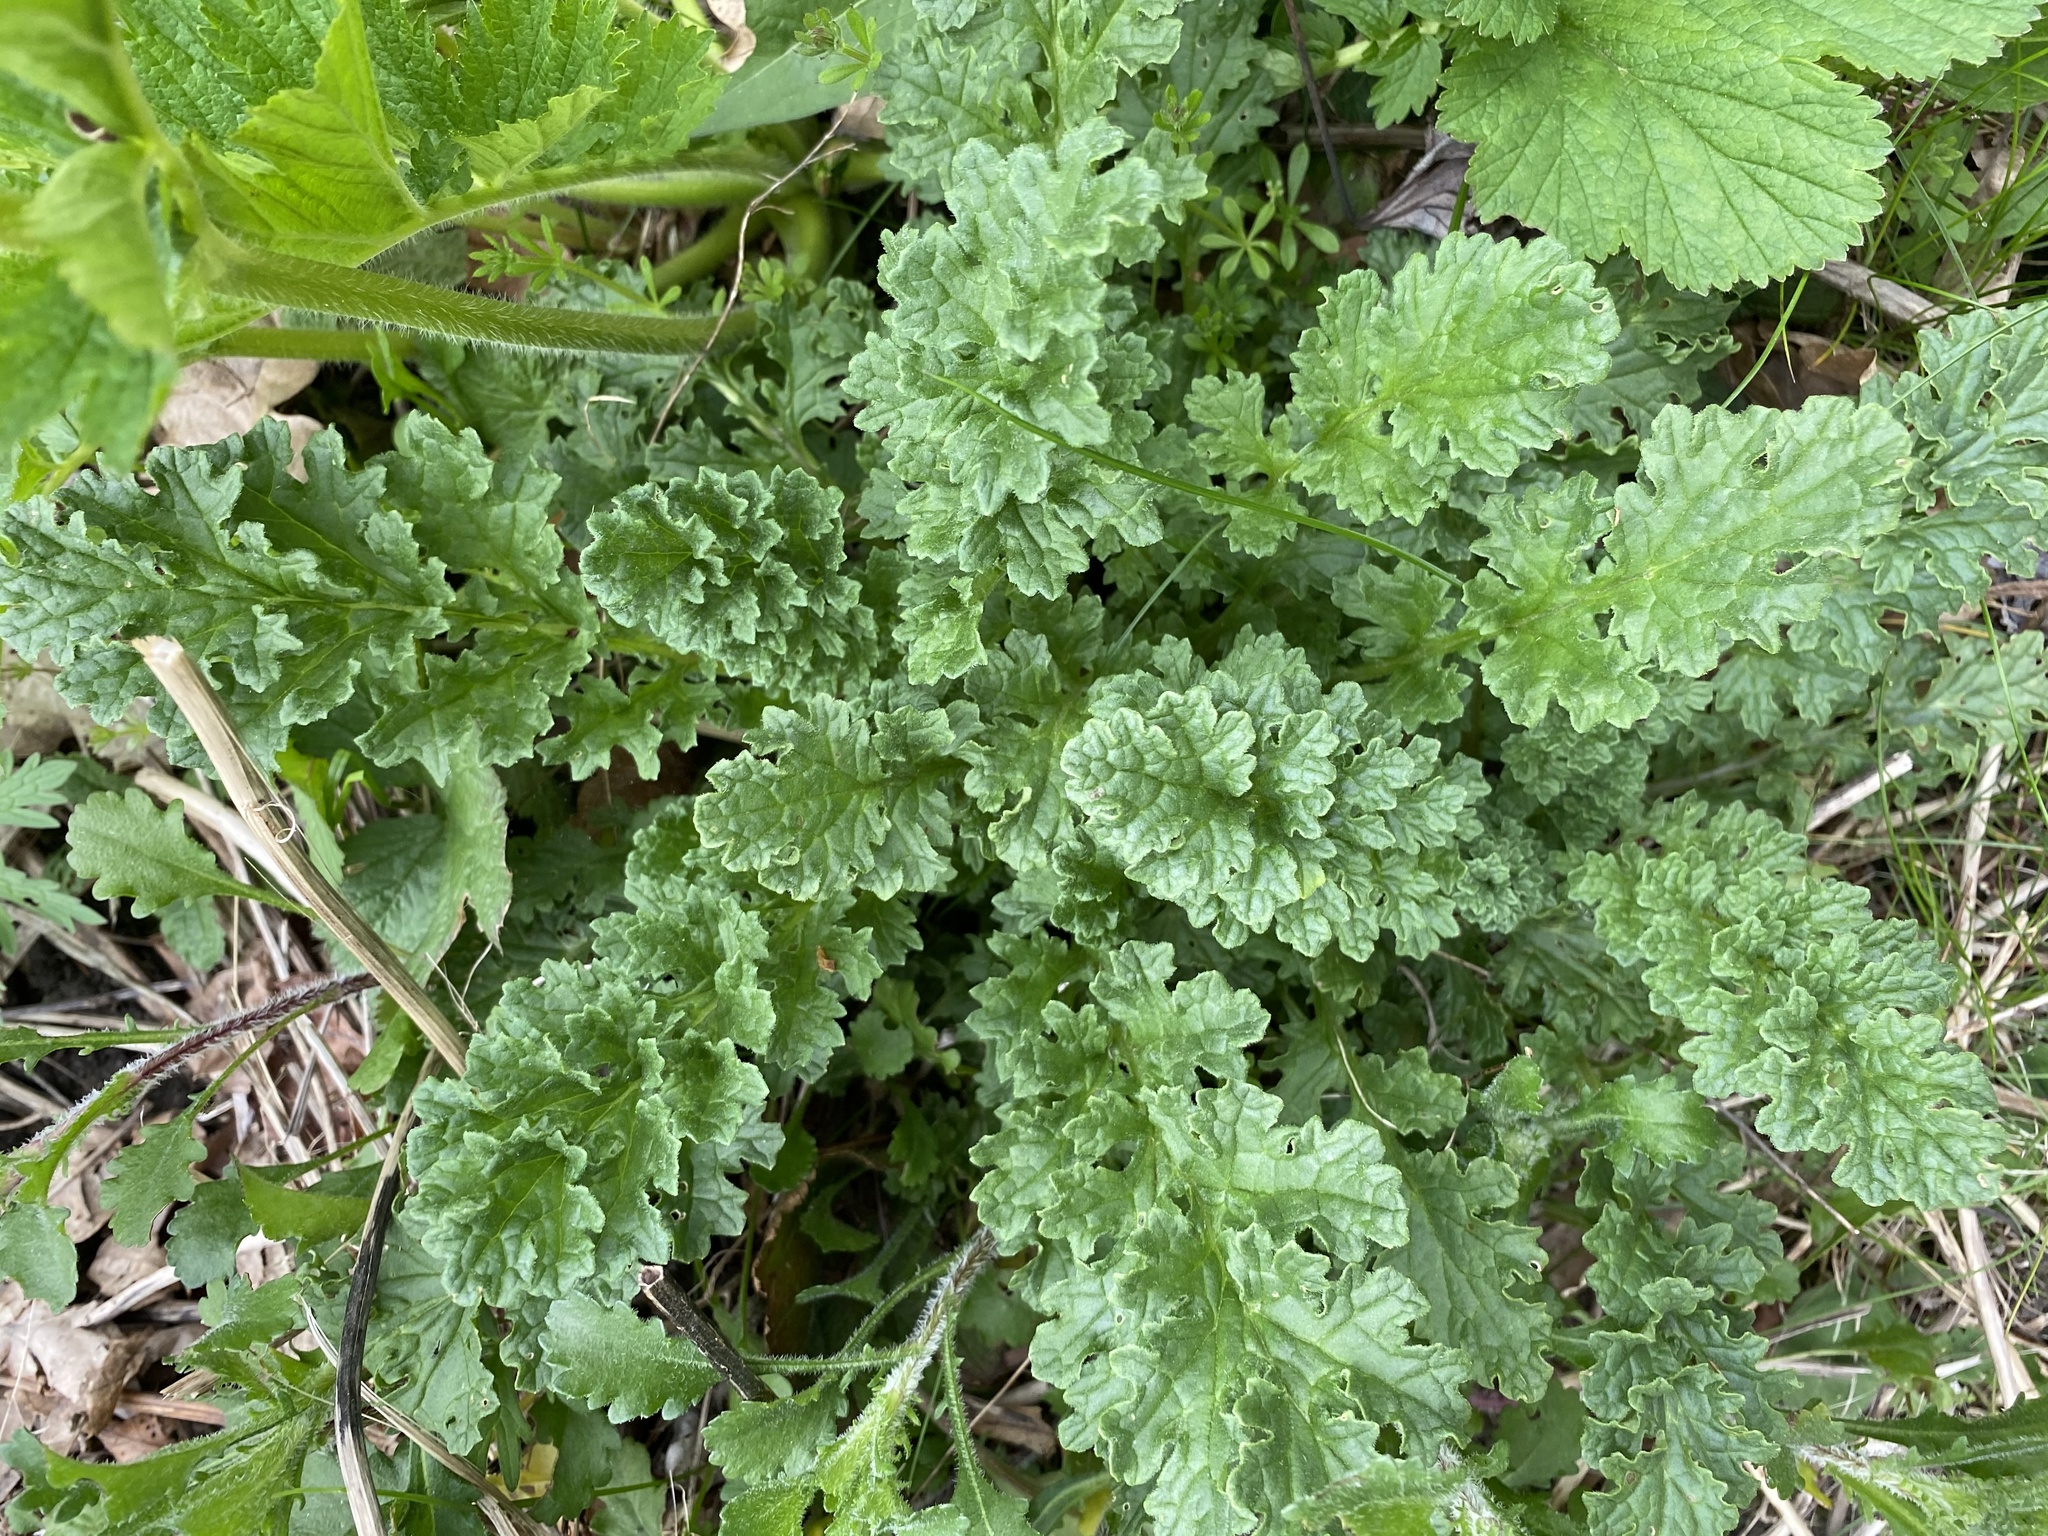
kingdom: Plantae
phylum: Tracheophyta
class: Magnoliopsida
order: Asterales
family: Asteraceae
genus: Jacobaea
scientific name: Jacobaea vulgaris
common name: Stinking willie
